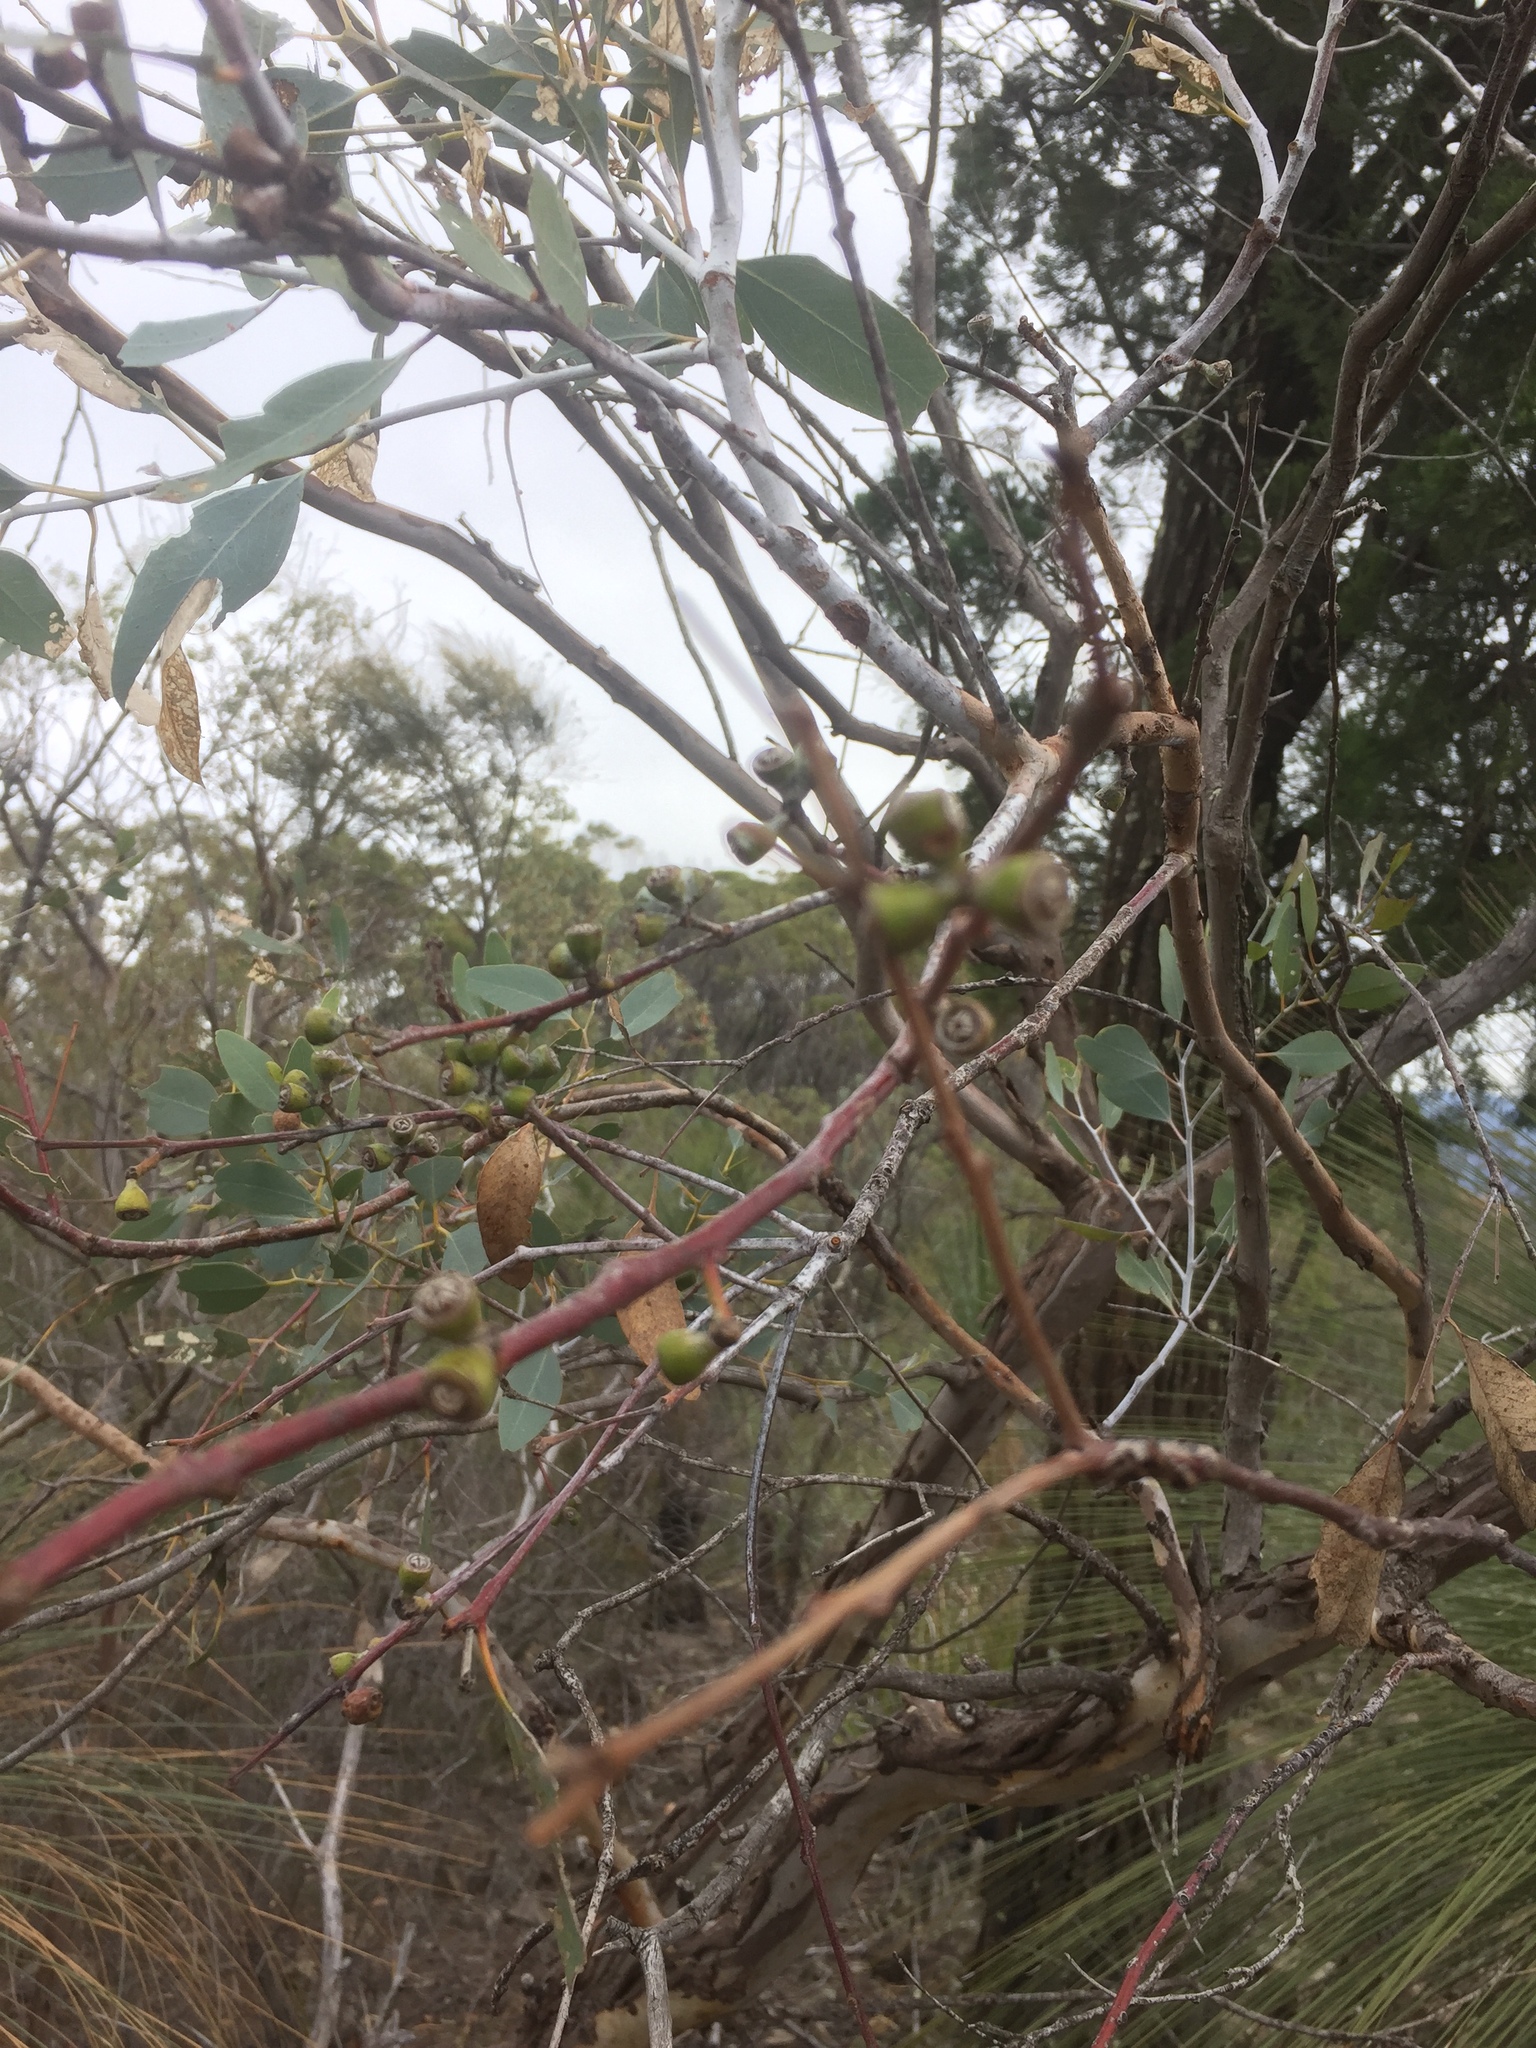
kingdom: Plantae
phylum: Tracheophyta
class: Magnoliopsida
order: Myrtales
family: Myrtaceae
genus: Eucalyptus
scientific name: Eucalyptus dealbata
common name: Red gum
